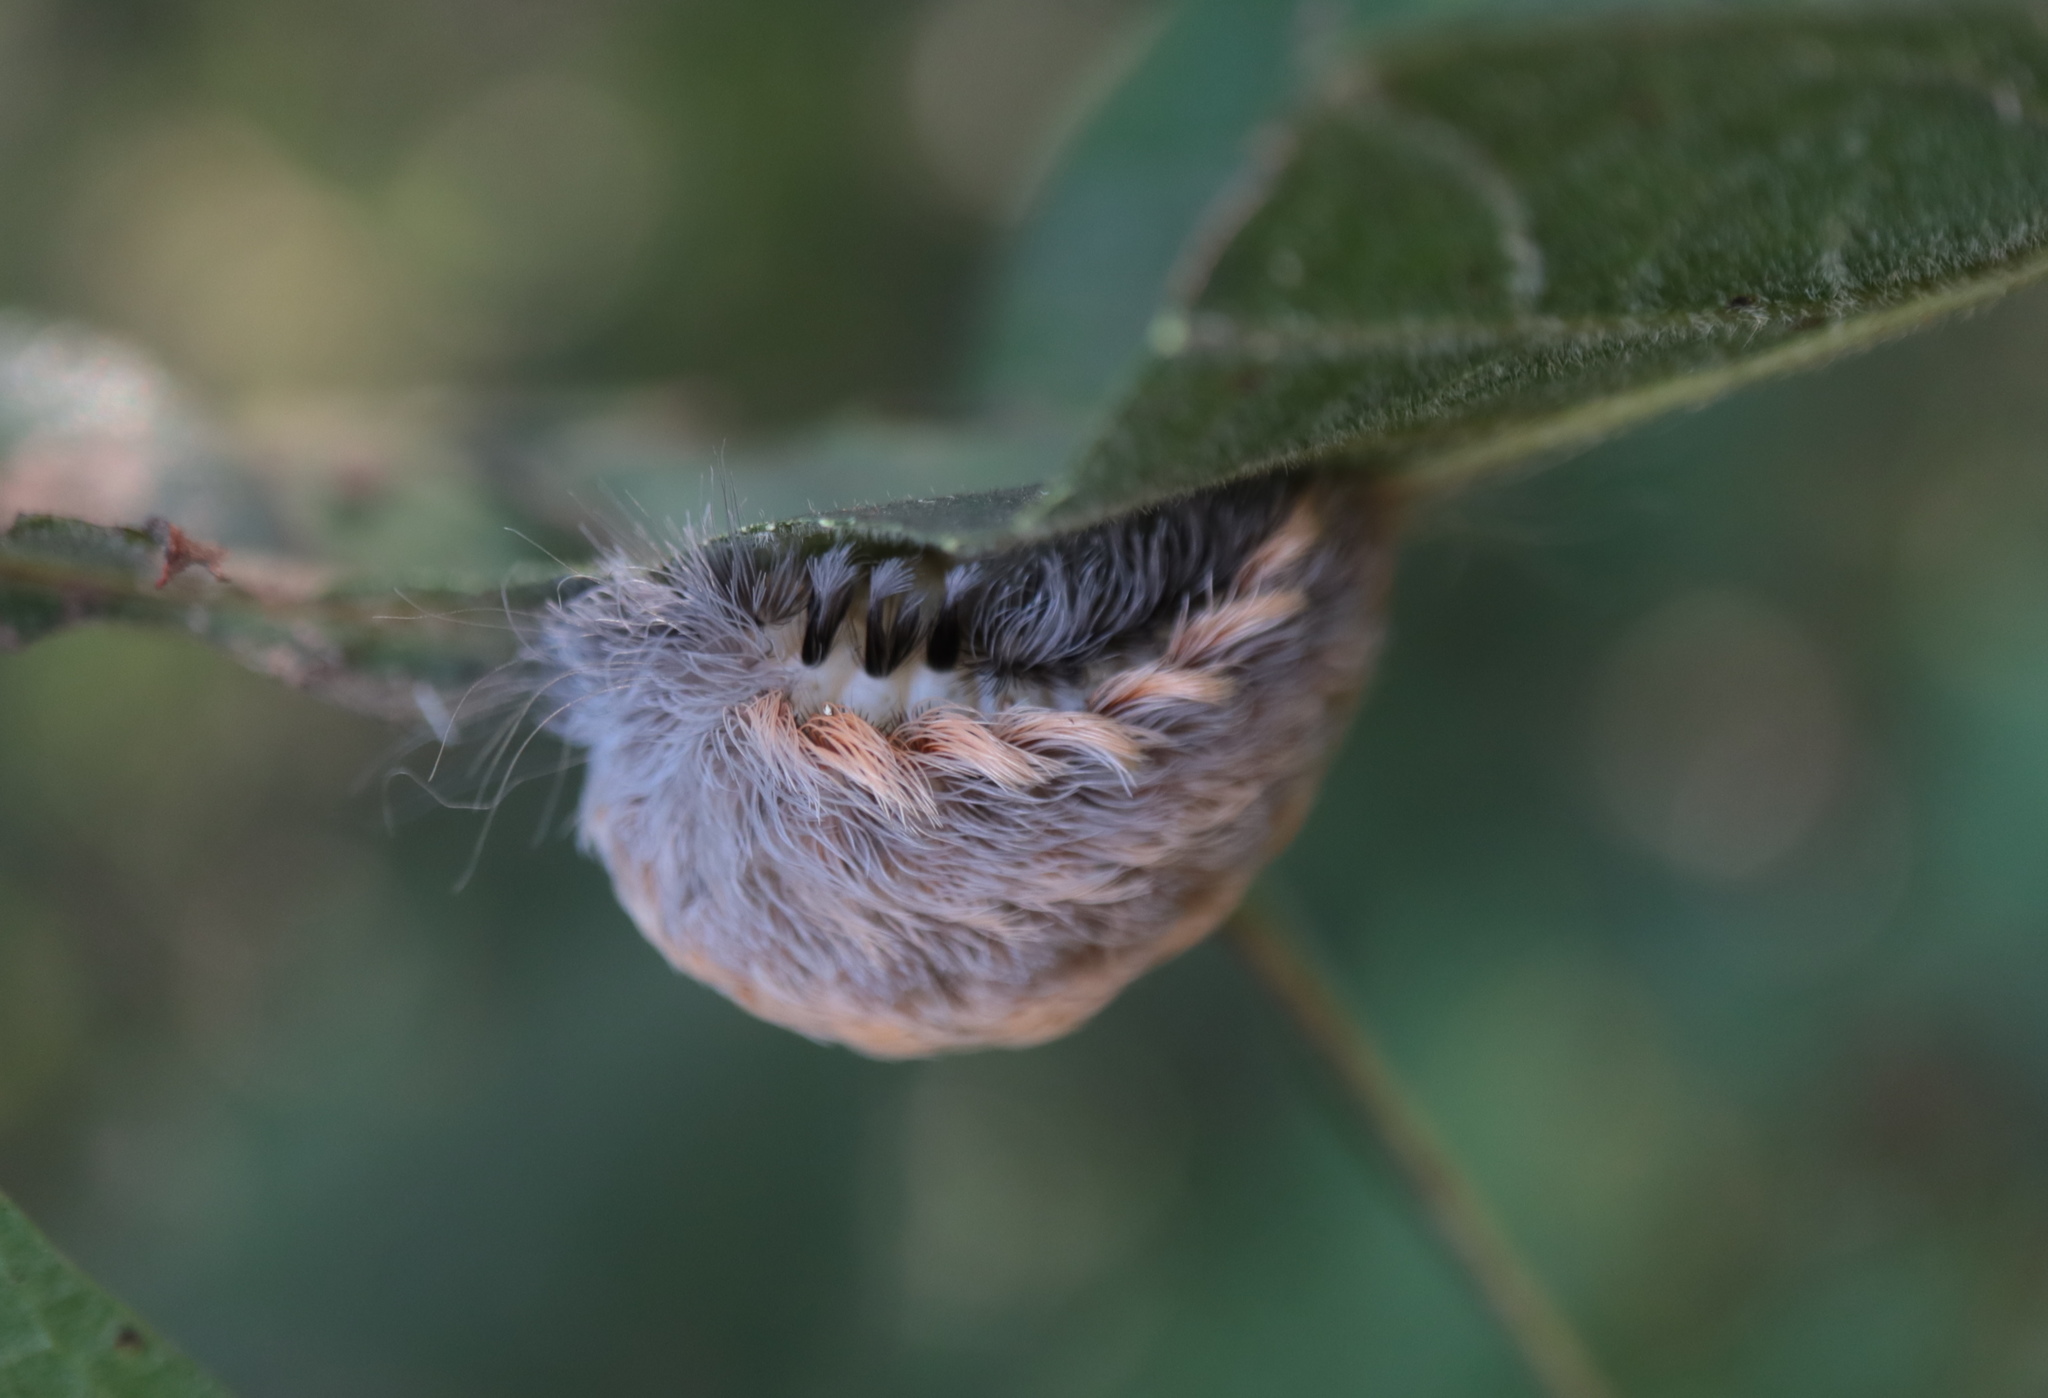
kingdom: Animalia
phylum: Arthropoda
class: Insecta
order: Lepidoptera
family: Megalopygidae
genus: Megalopyge
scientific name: Megalopyge crispata
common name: Black-waved flannel moth
